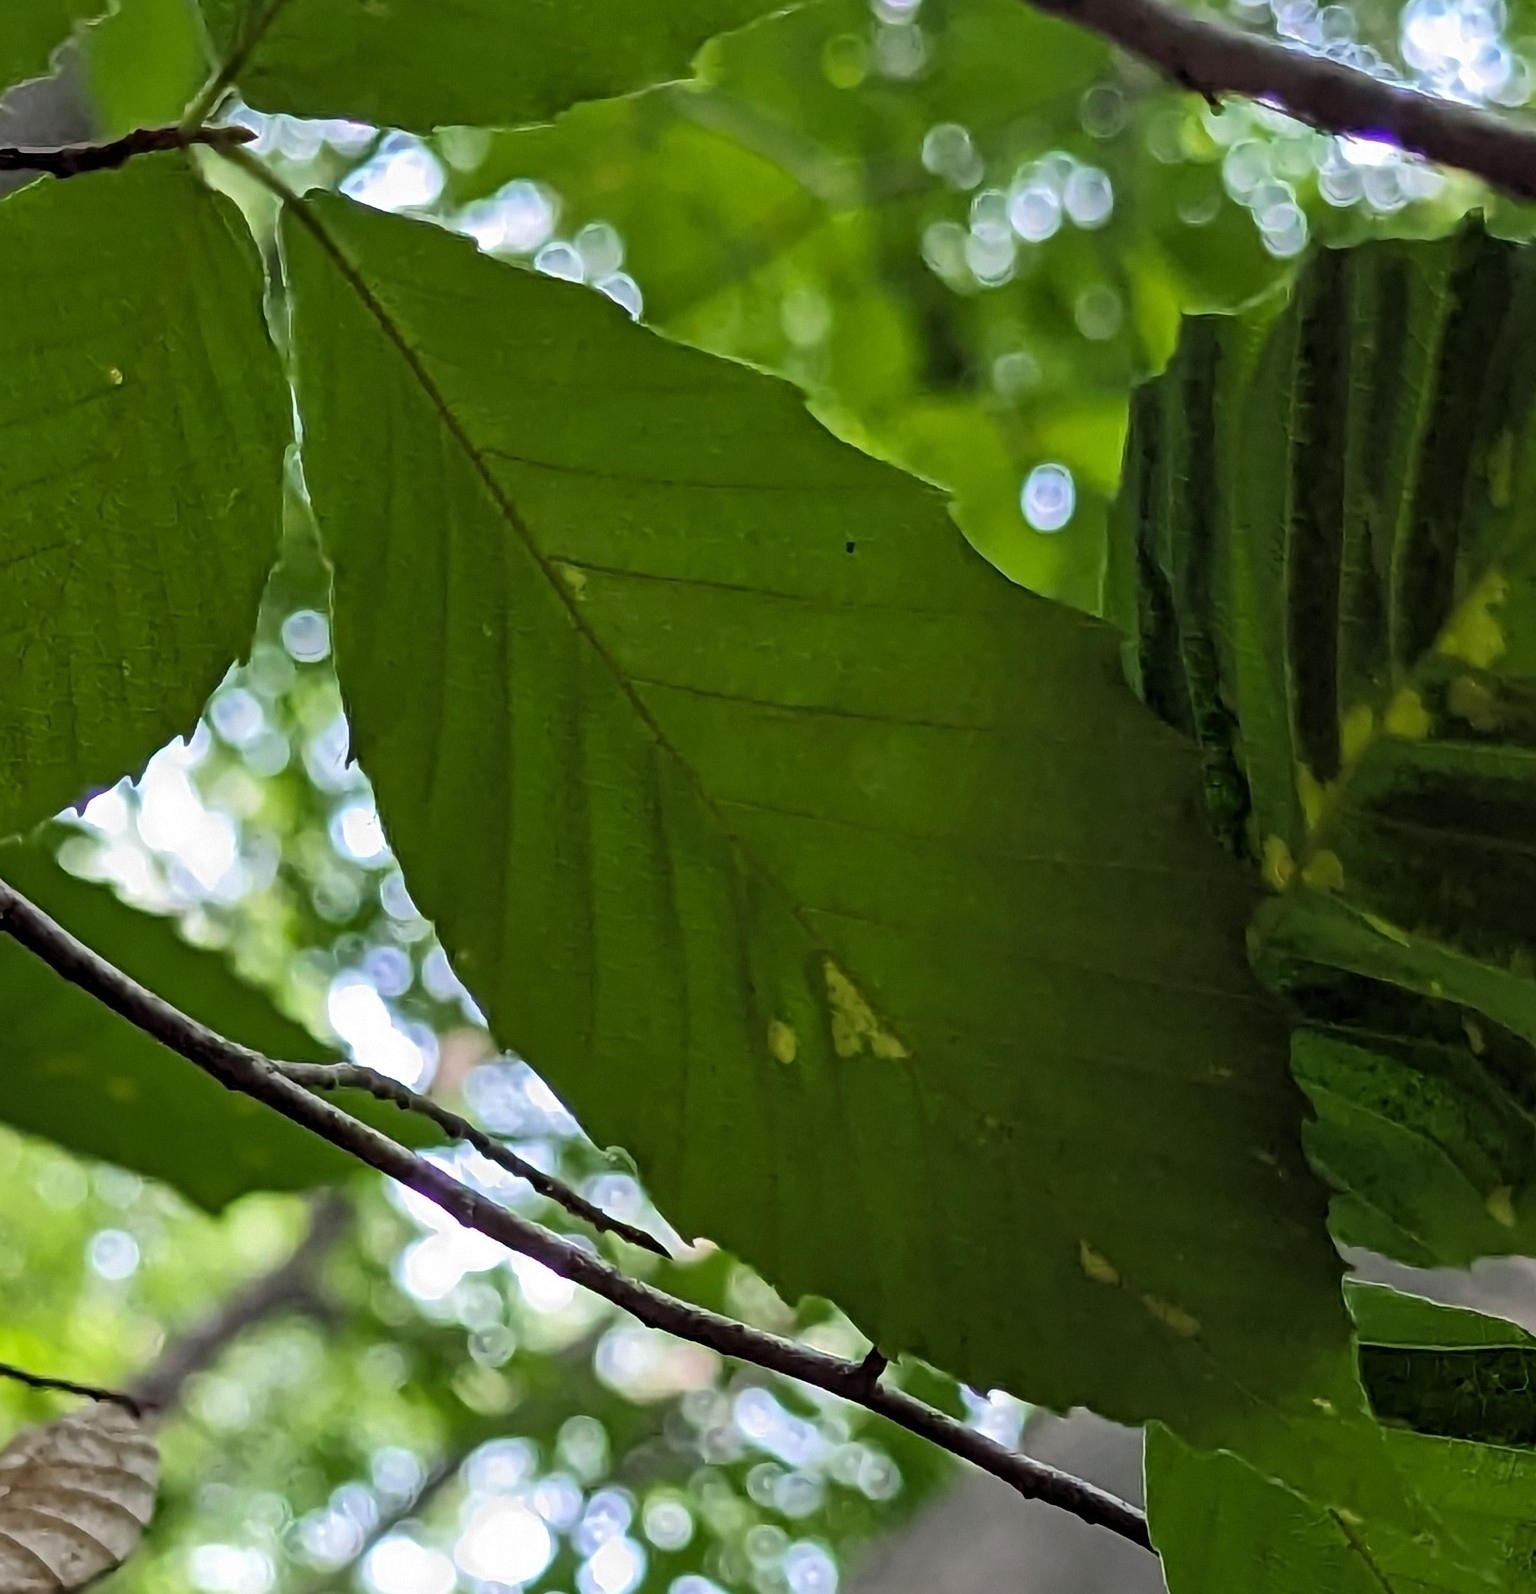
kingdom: Animalia
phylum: Arthropoda
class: Arachnida
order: Trombidiformes
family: Eriophyidae
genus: Acalitus
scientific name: Acalitus
